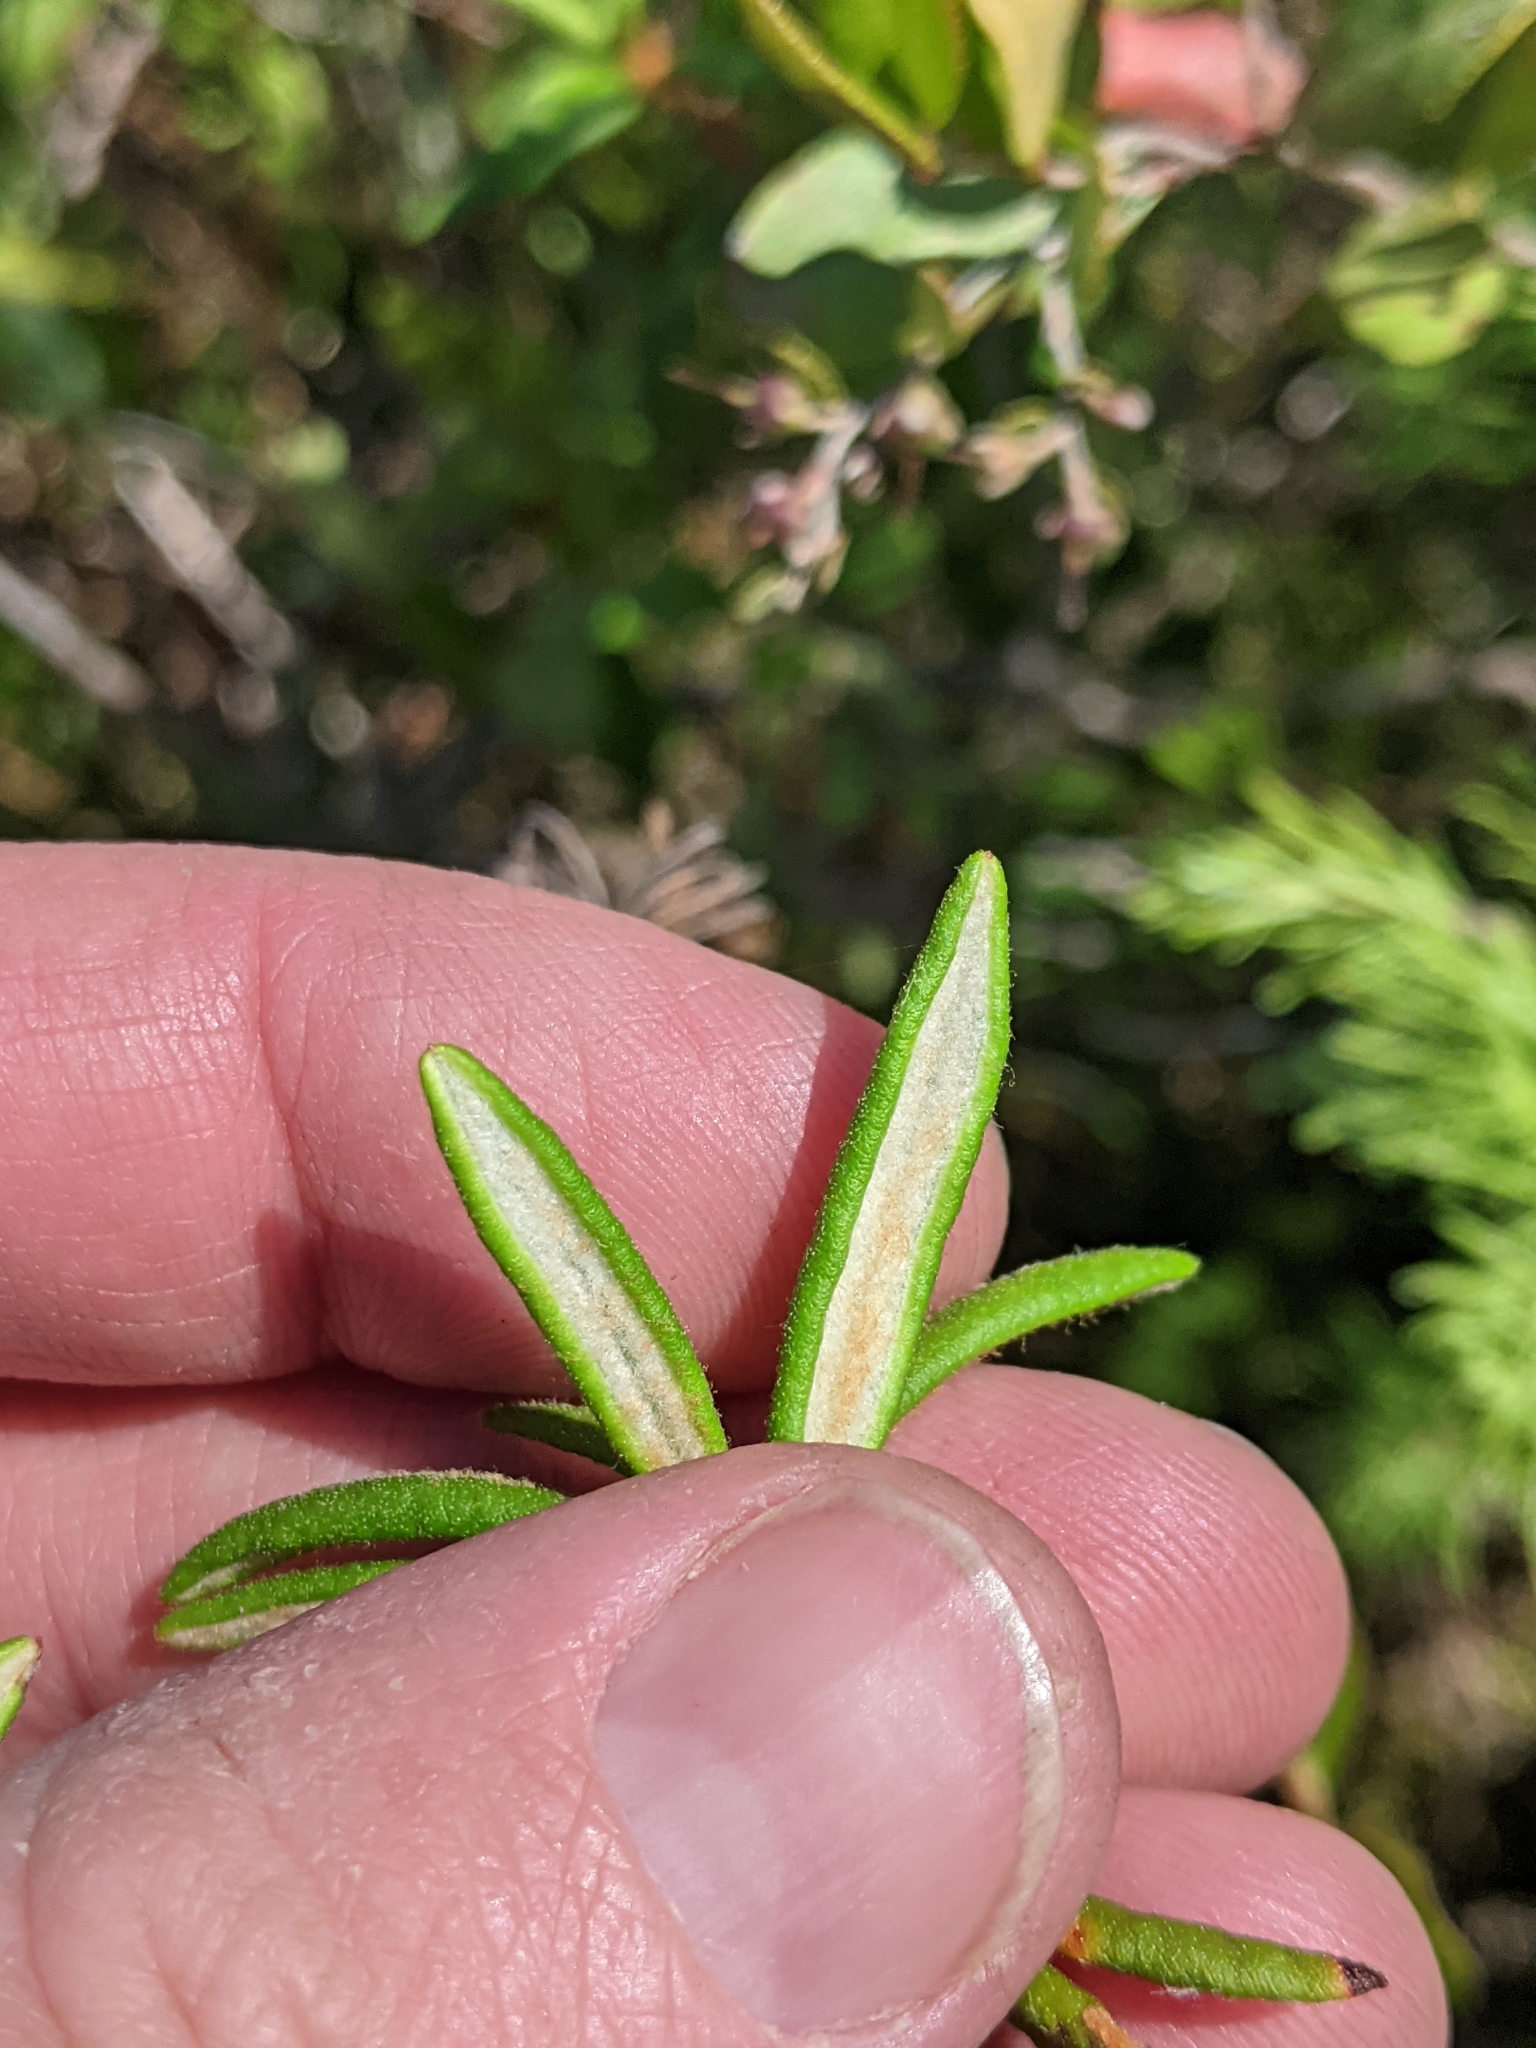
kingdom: Plantae
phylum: Tracheophyta
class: Magnoliopsida
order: Ericales
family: Ericaceae
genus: Rhododendron
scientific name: Rhododendron groenlandicum
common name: Bog labrador tea
